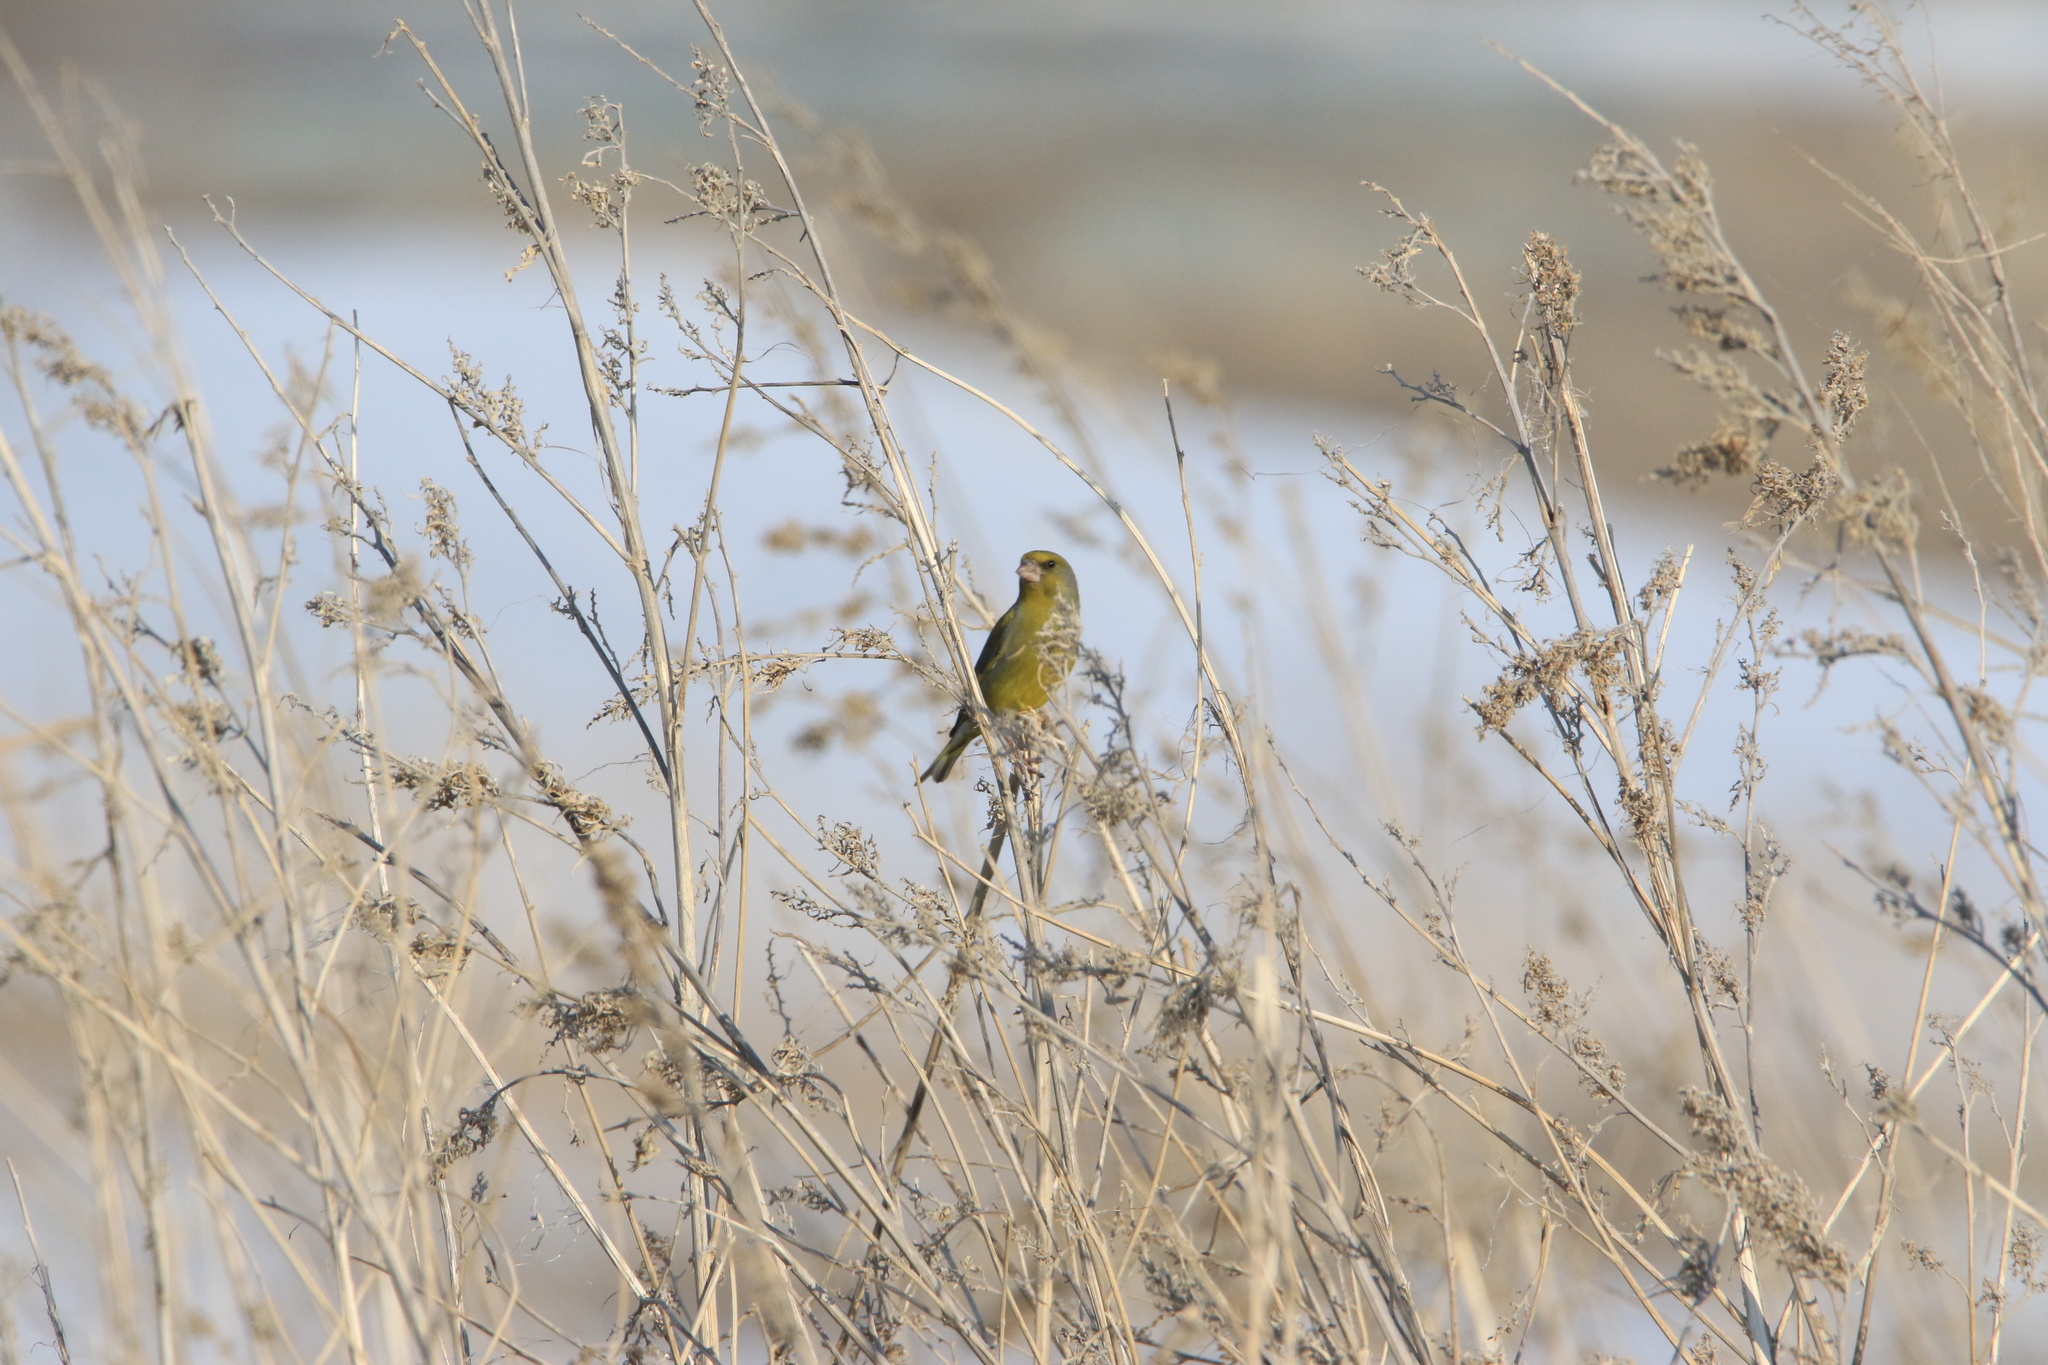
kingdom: Plantae
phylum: Tracheophyta
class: Liliopsida
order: Poales
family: Poaceae
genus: Chloris
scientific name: Chloris chloris
